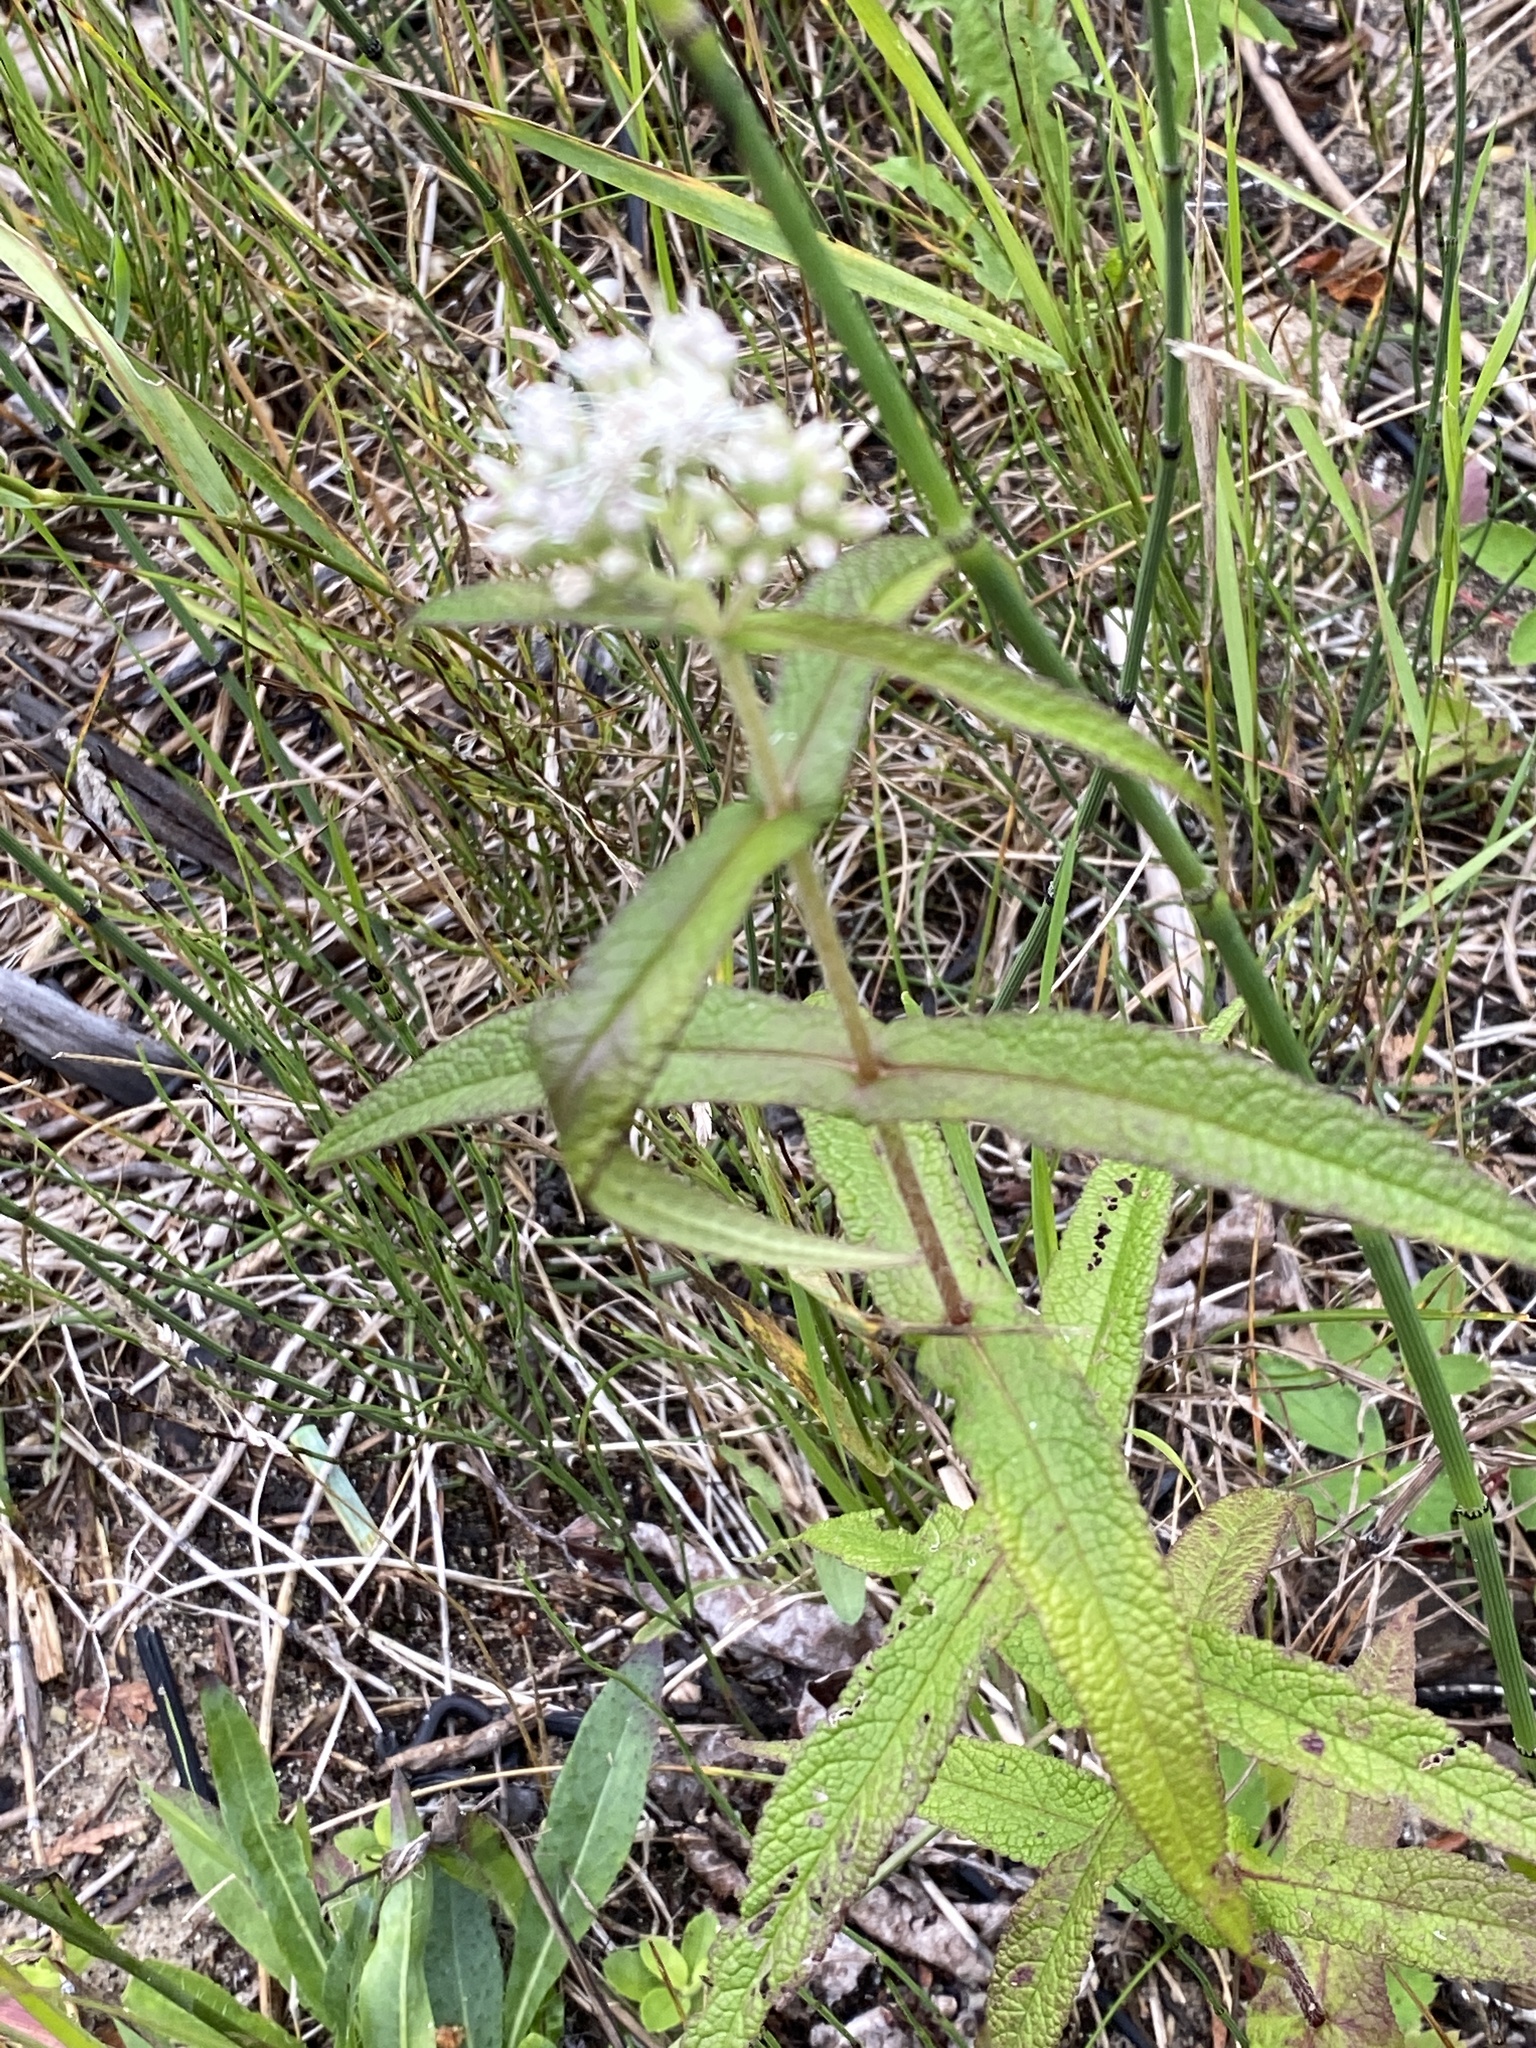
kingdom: Plantae
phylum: Tracheophyta
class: Magnoliopsida
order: Asterales
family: Asteraceae
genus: Eupatorium
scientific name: Eupatorium perfoliatum
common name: Boneset
